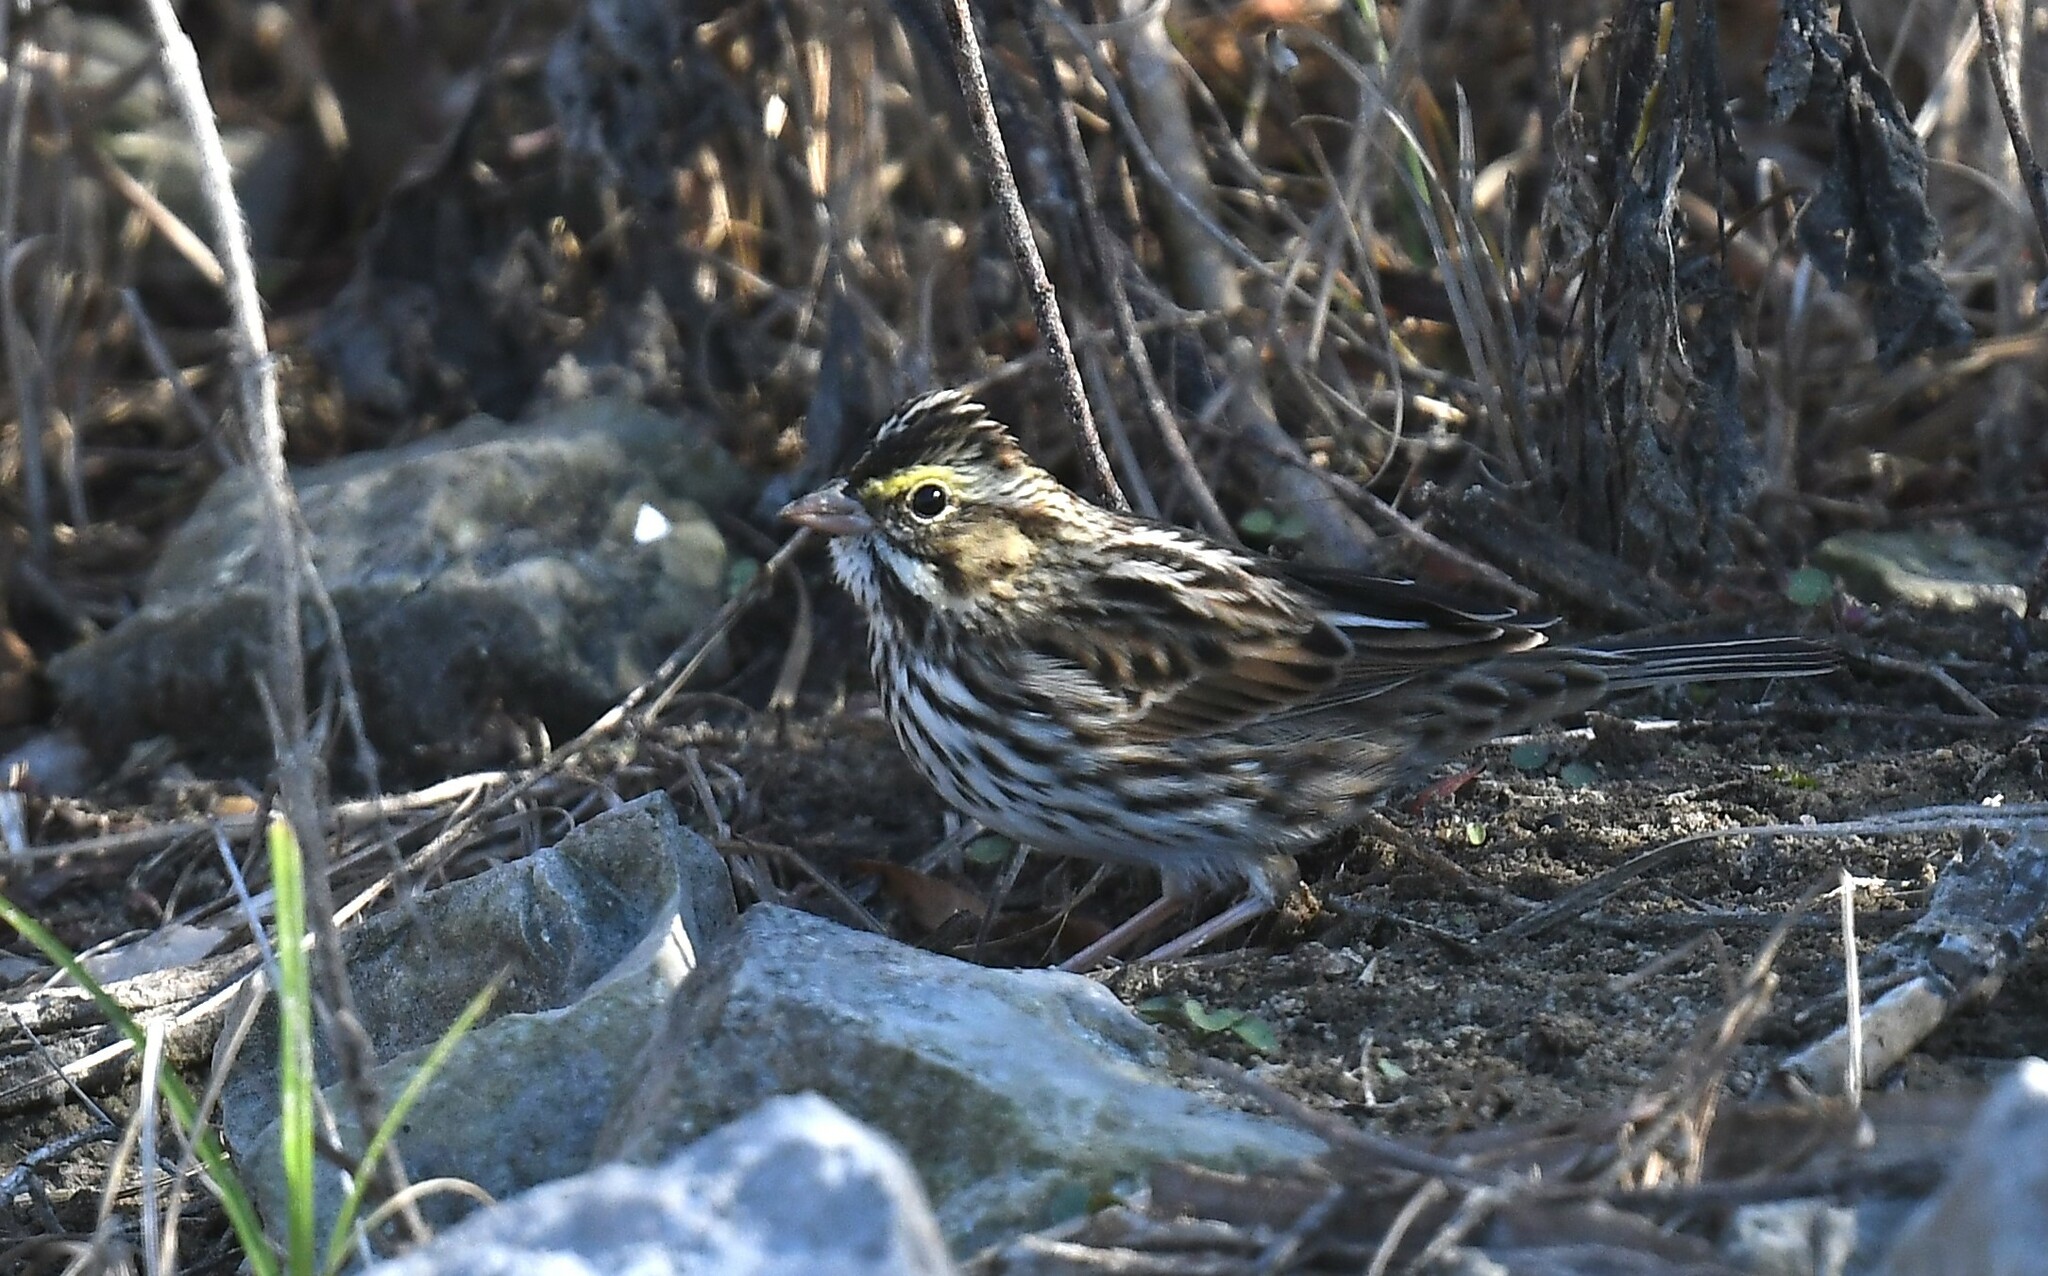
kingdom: Animalia
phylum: Chordata
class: Aves
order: Passeriformes
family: Passerellidae
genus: Passerculus
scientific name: Passerculus sandwichensis
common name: Savannah sparrow
